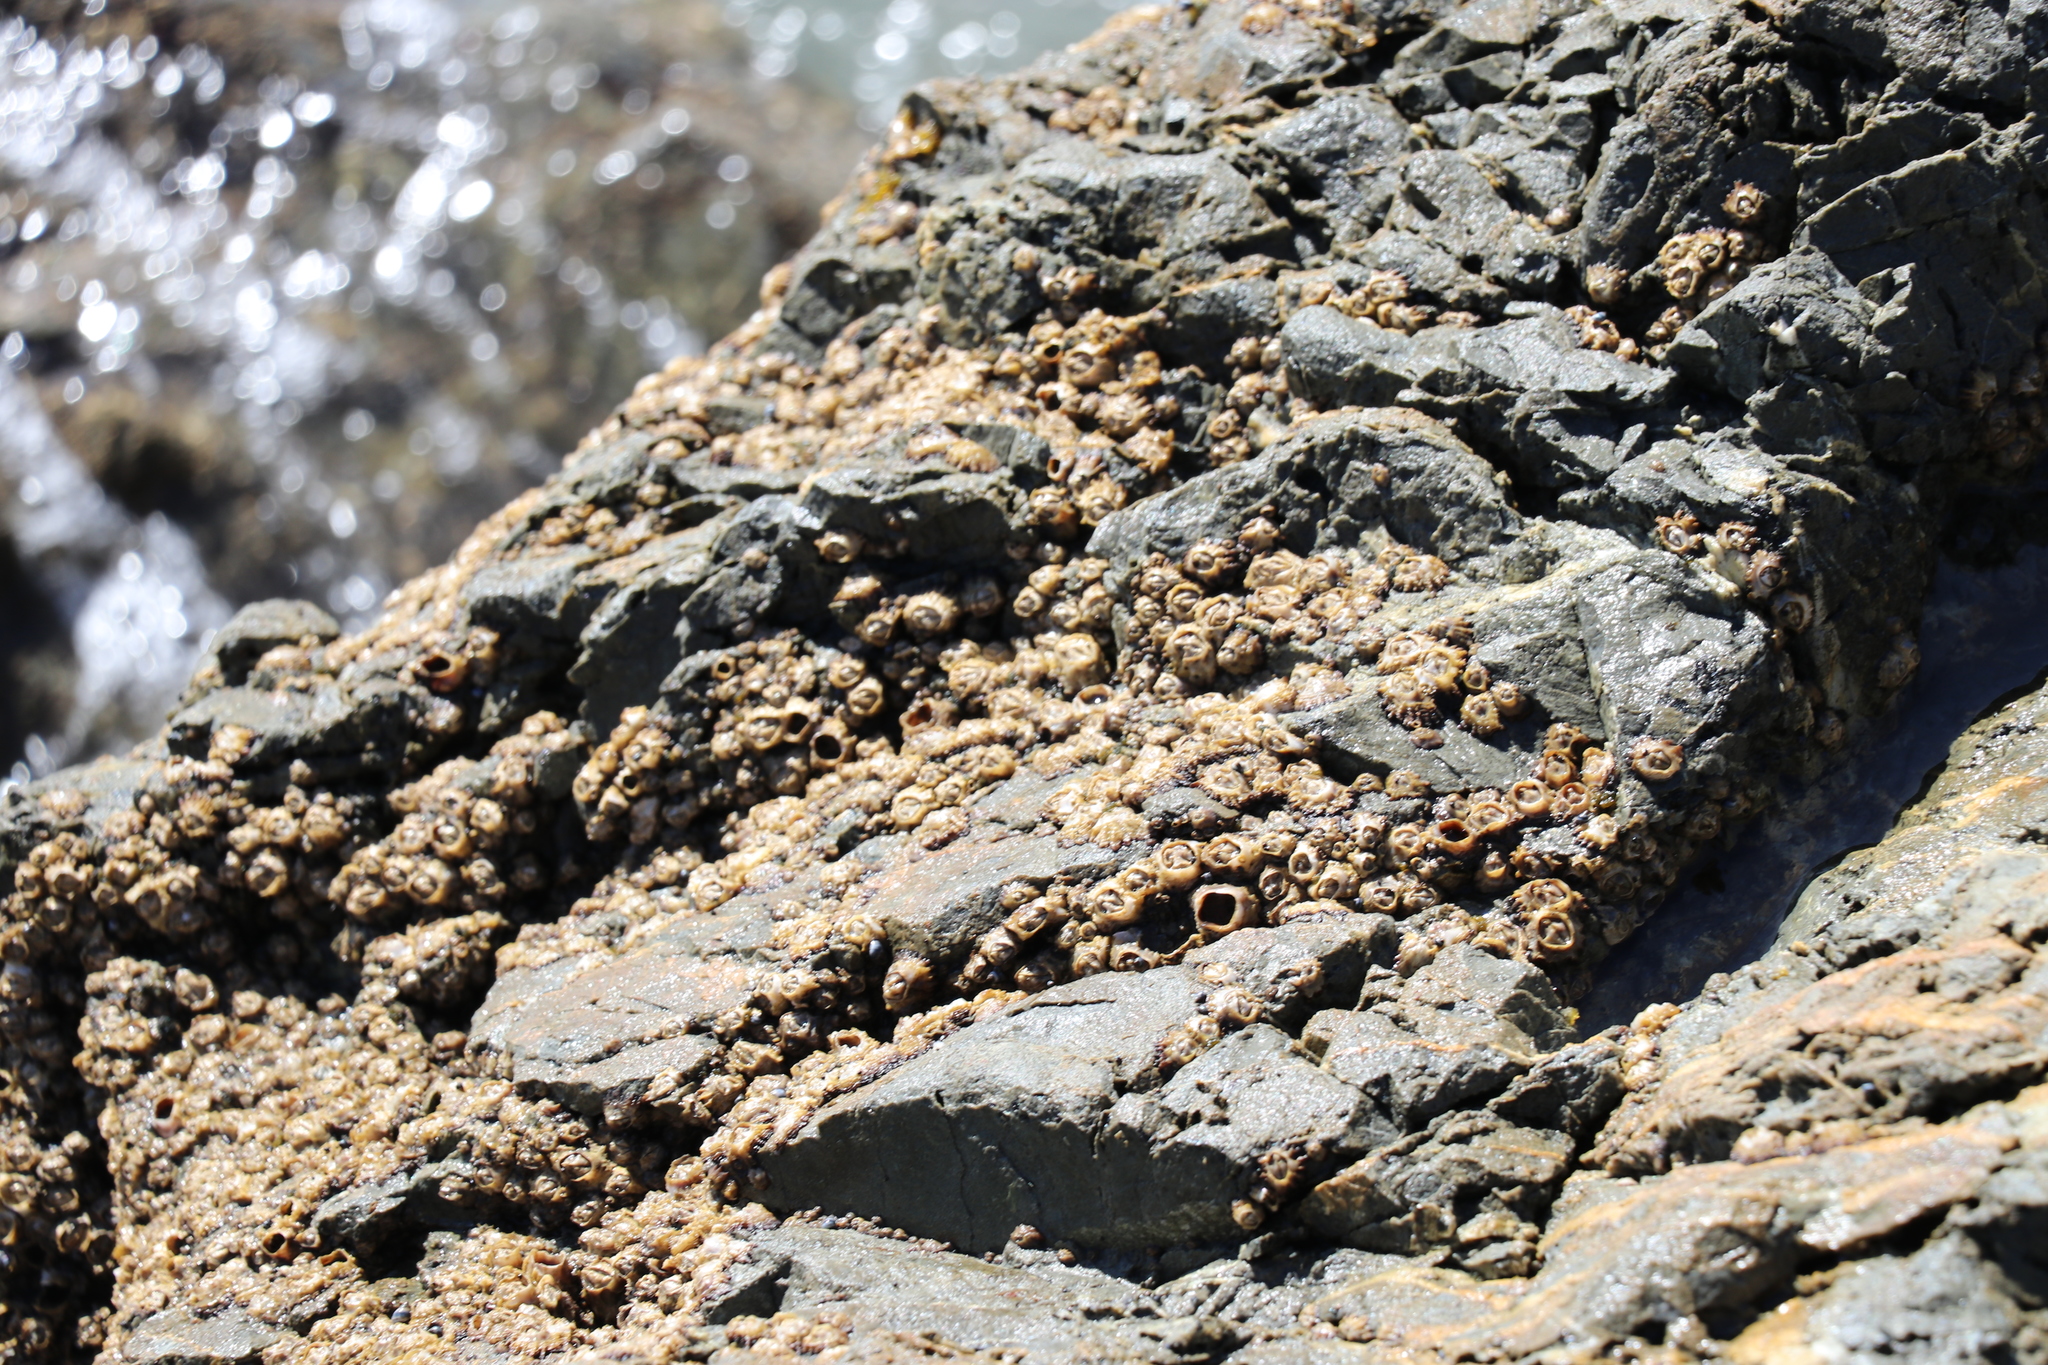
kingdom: Animalia
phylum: Arthropoda
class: Maxillopoda
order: Sessilia
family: Chthamalidae
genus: Chamaesipho
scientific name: Chamaesipho brunnea
